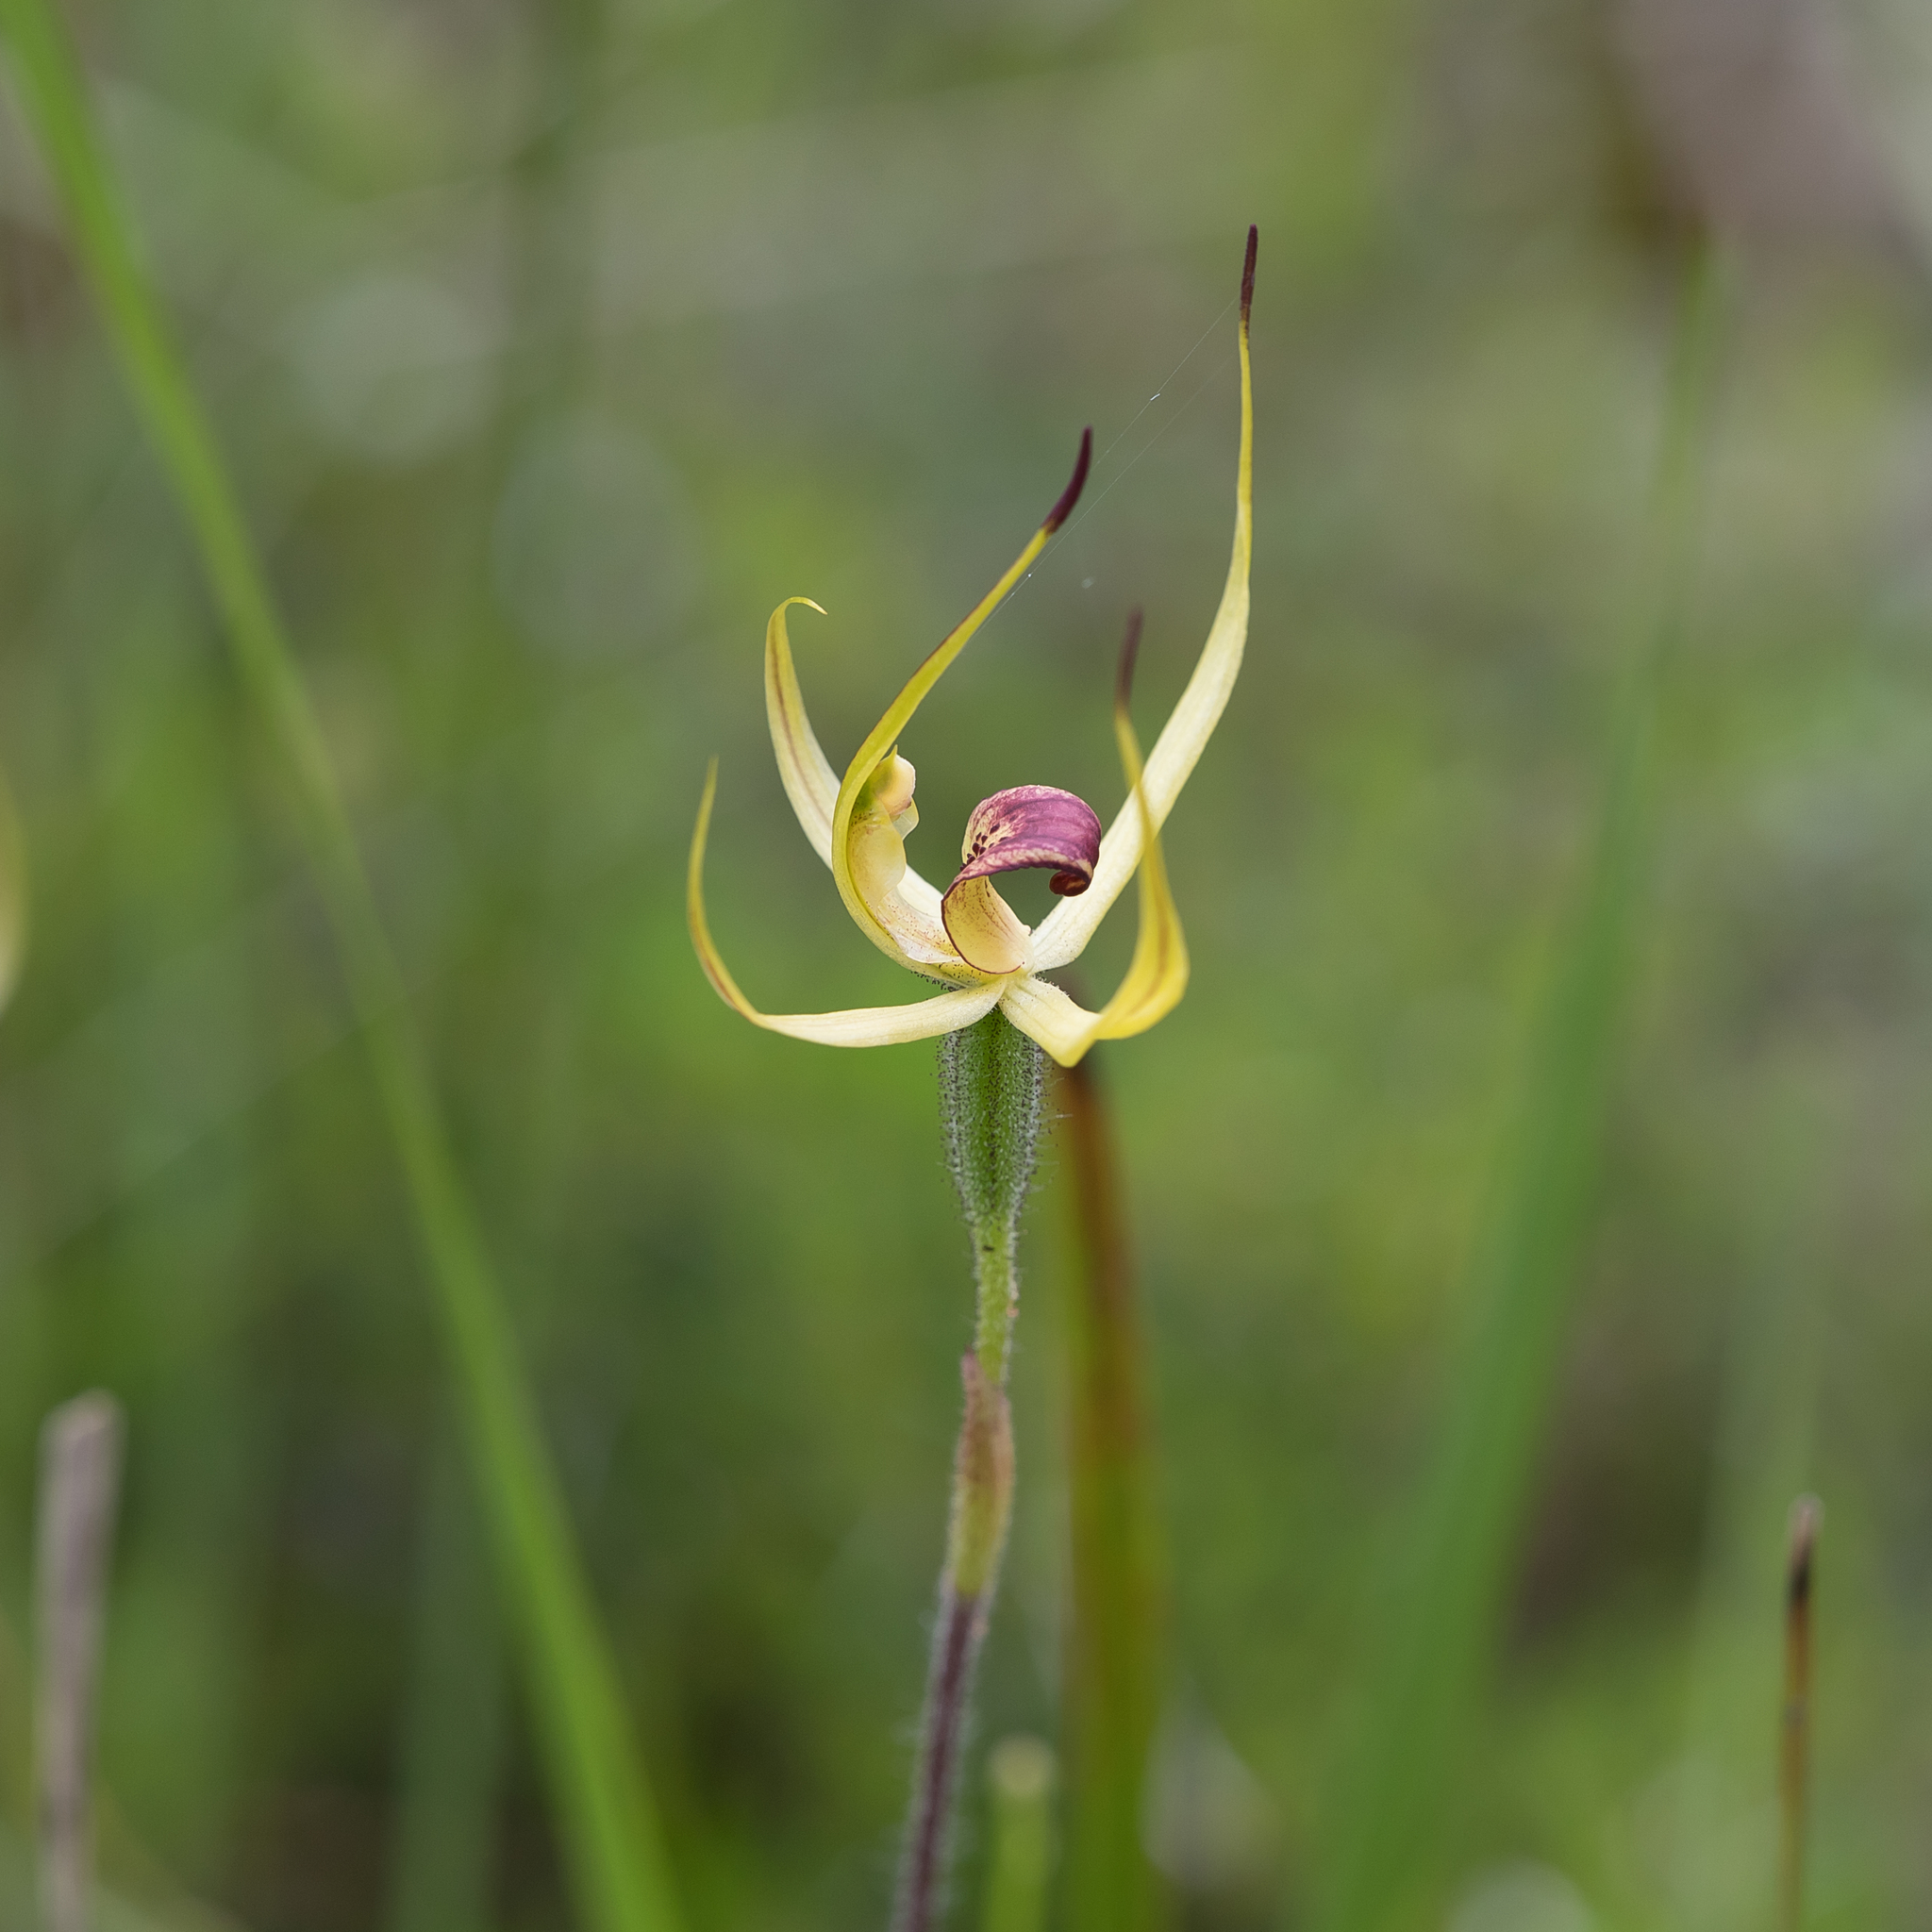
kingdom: Plantae
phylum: Tracheophyta
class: Liliopsida
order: Asparagales
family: Orchidaceae
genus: Caladenia
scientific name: Caladenia leptochila
